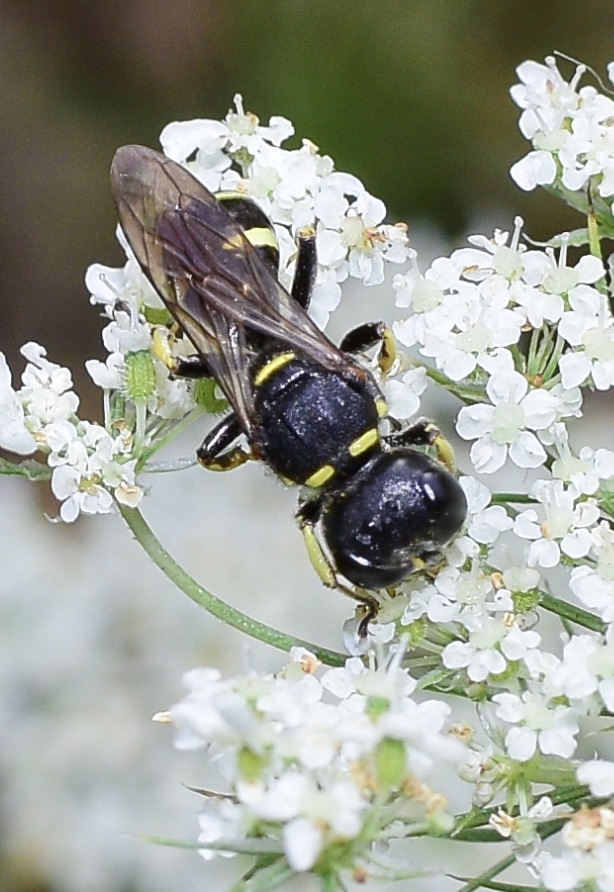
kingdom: Animalia
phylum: Arthropoda
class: Insecta
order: Hymenoptera
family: Crabronidae
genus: Ectemnius
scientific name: Ectemnius continuus
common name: Common ectemnius
